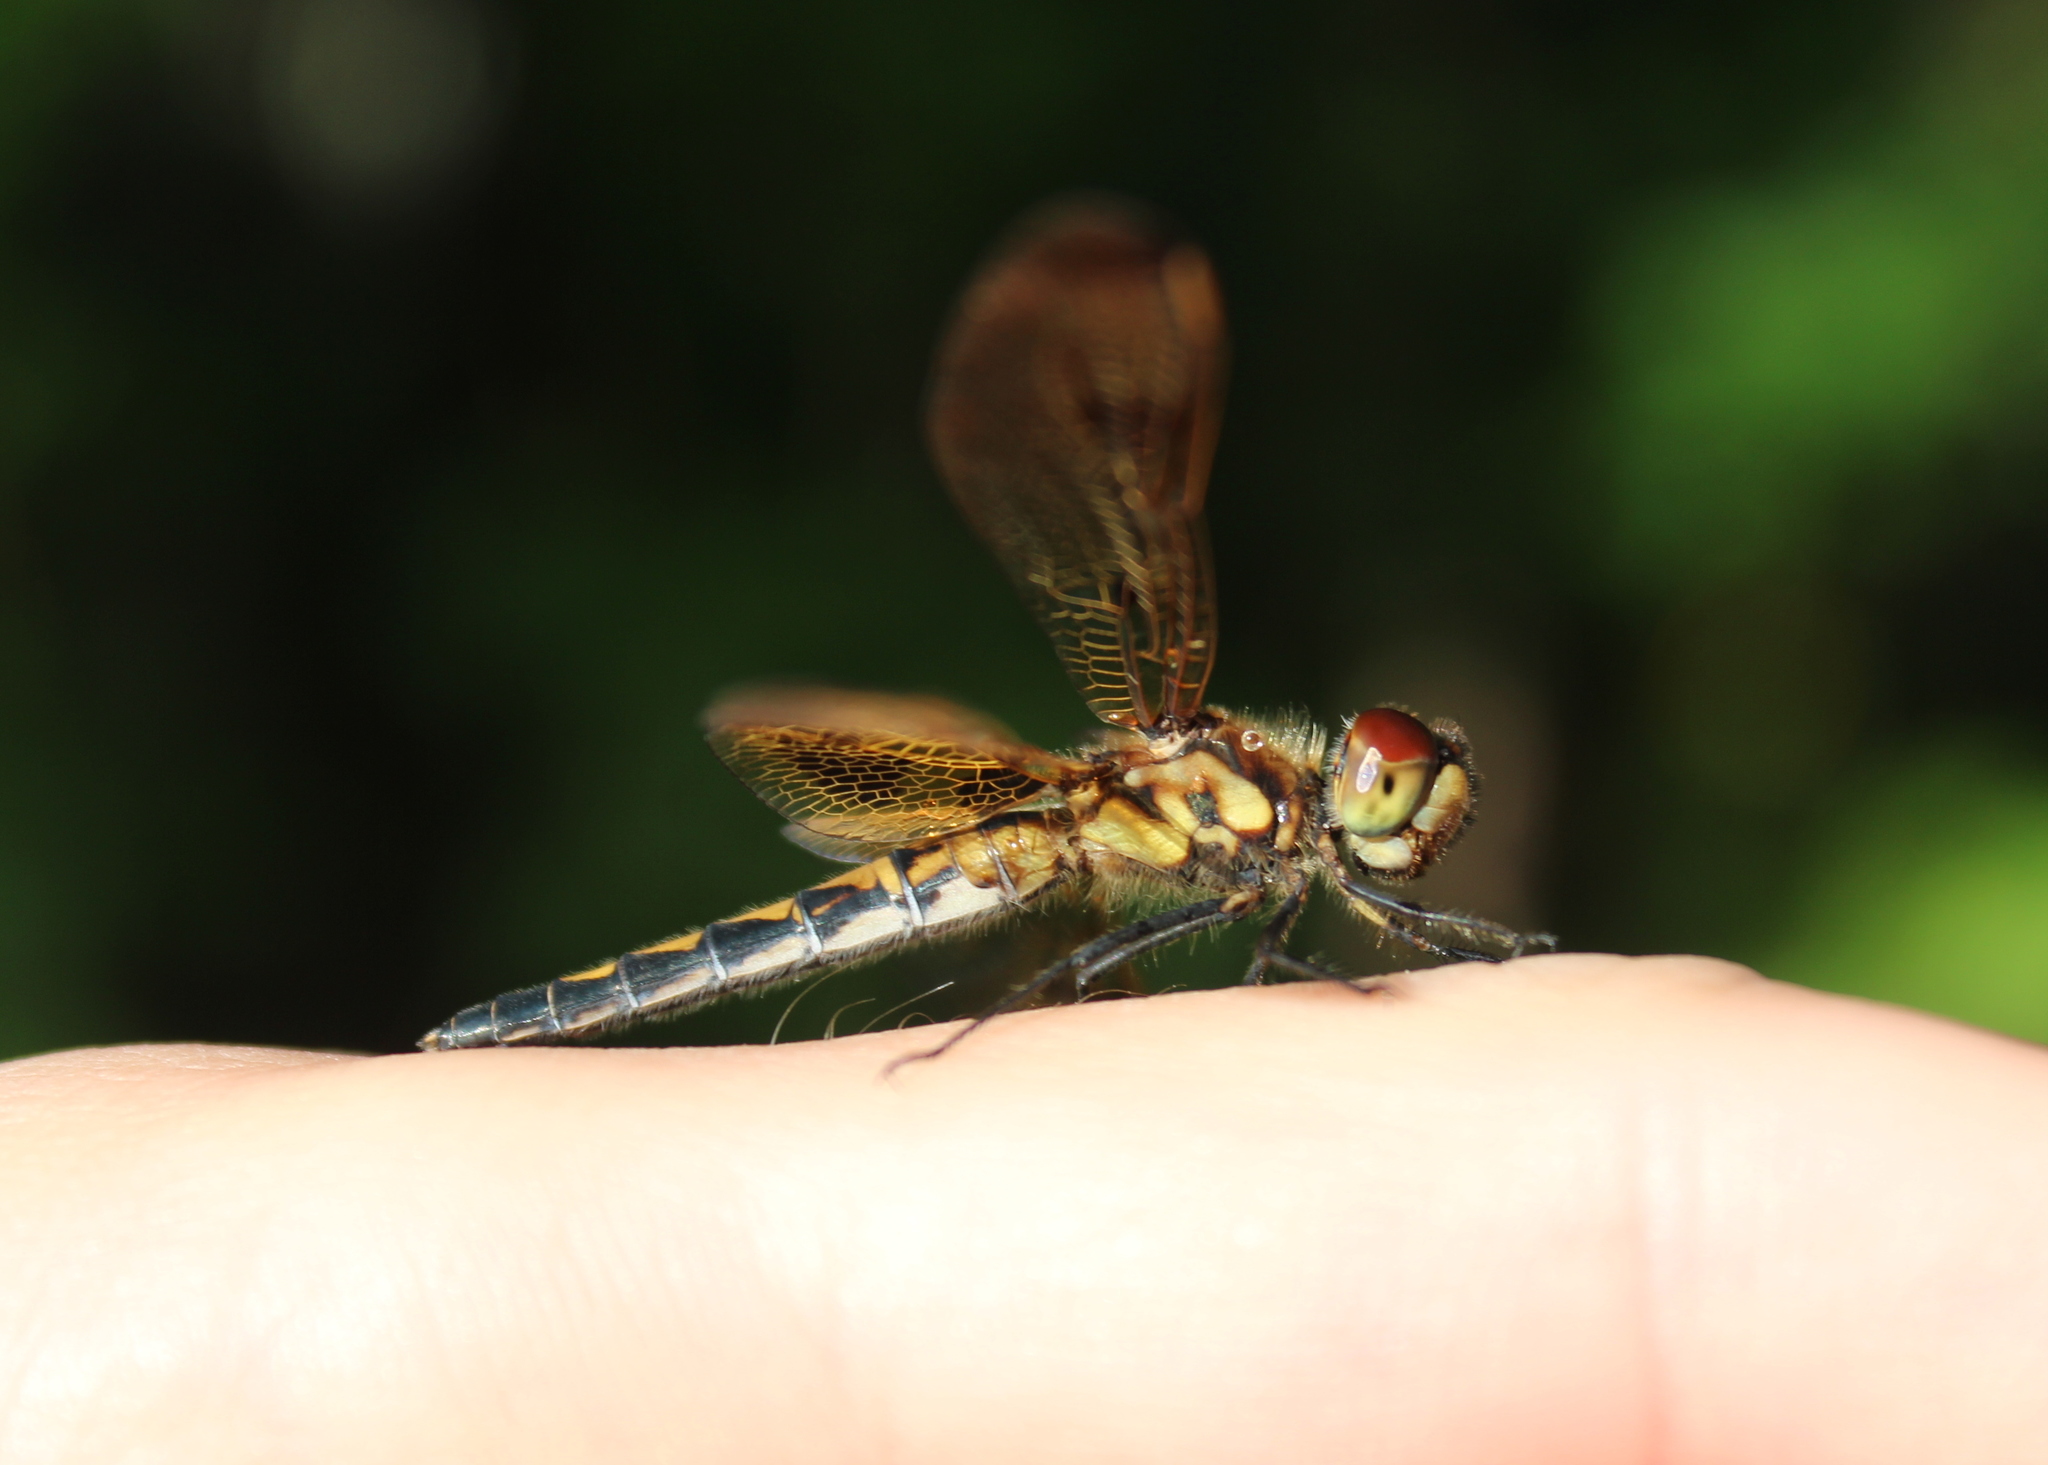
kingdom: Animalia
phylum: Arthropoda
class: Insecta
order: Odonata
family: Libellulidae
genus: Celithemis
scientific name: Celithemis elisa
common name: Calico pennant
